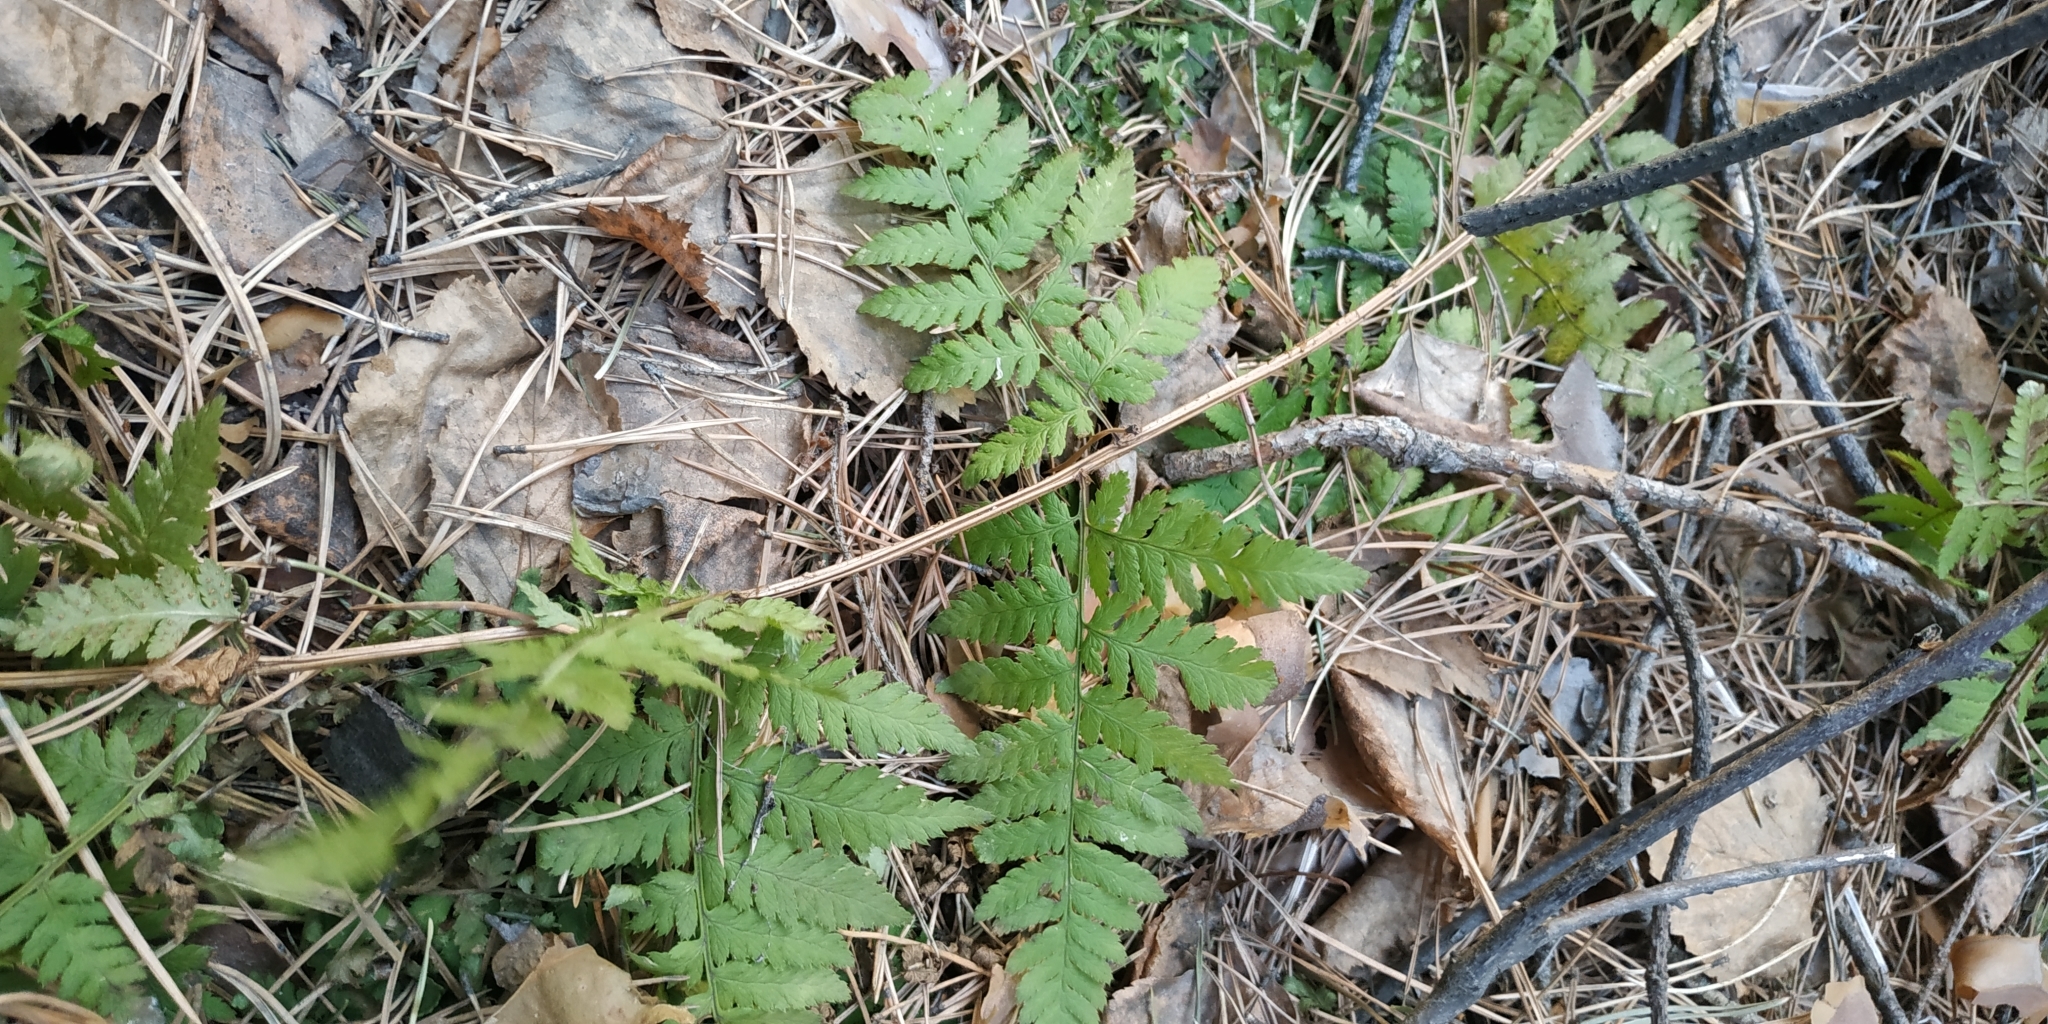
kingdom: Plantae
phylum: Tracheophyta
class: Polypodiopsida
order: Polypodiales
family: Dryopteridaceae
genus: Dryopteris
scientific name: Dryopteris carthusiana
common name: Narrow buckler-fern
